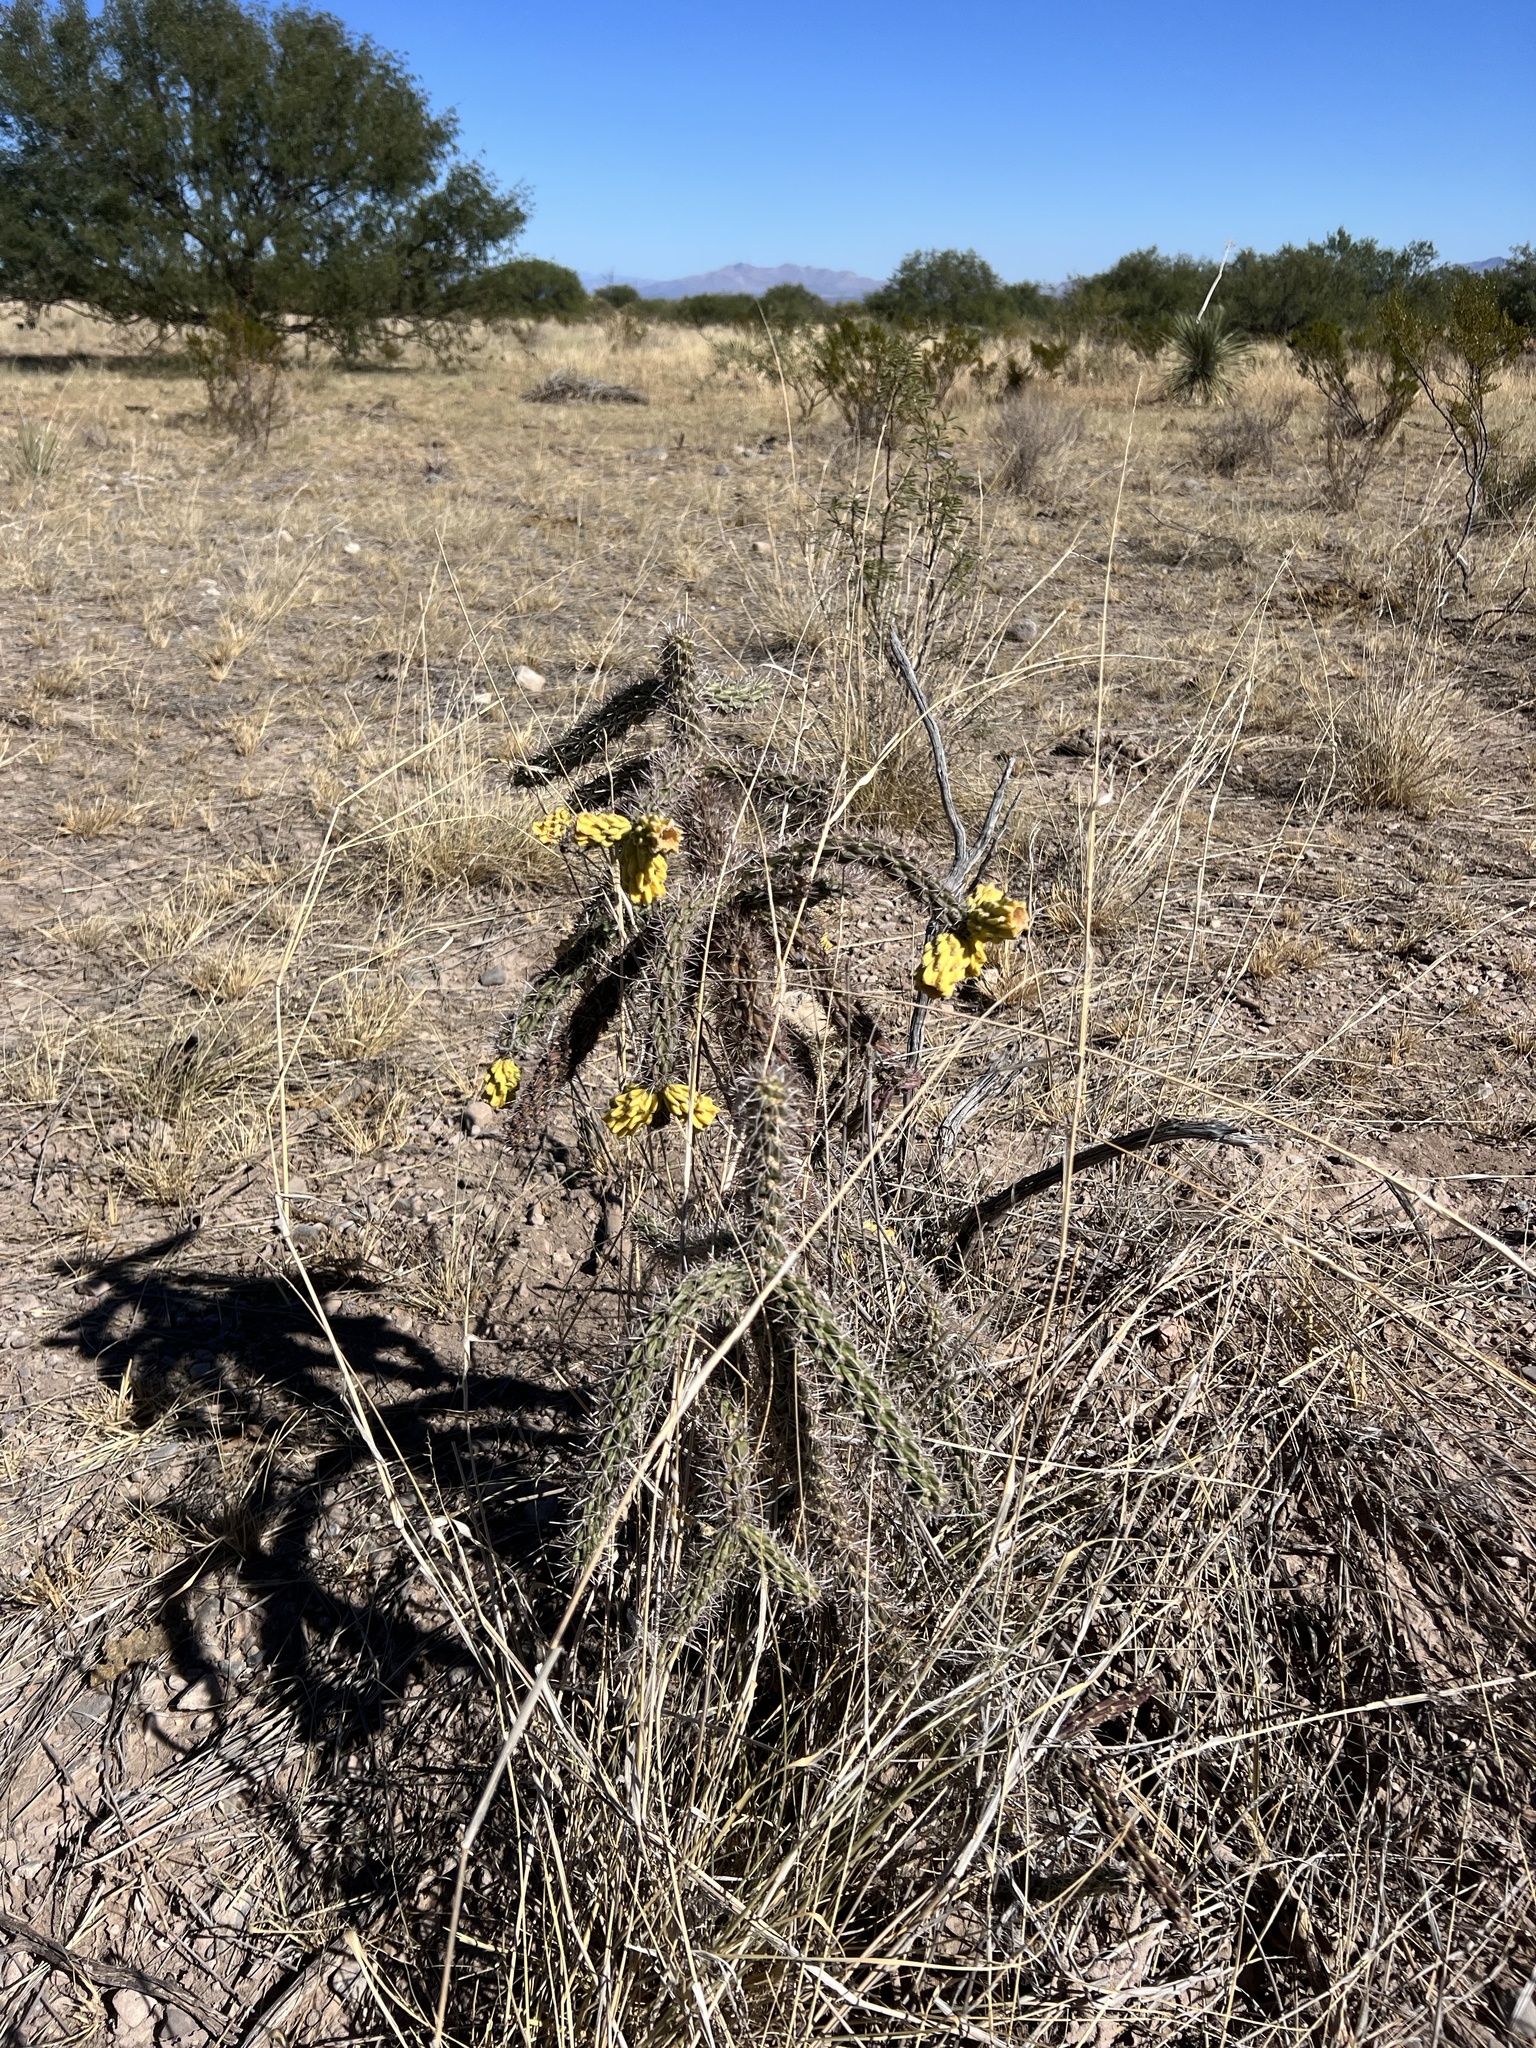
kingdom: Plantae
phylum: Tracheophyta
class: Magnoliopsida
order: Caryophyllales
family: Cactaceae
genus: Cylindropuntia
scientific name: Cylindropuntia imbricata
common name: Candelabrum cactus
